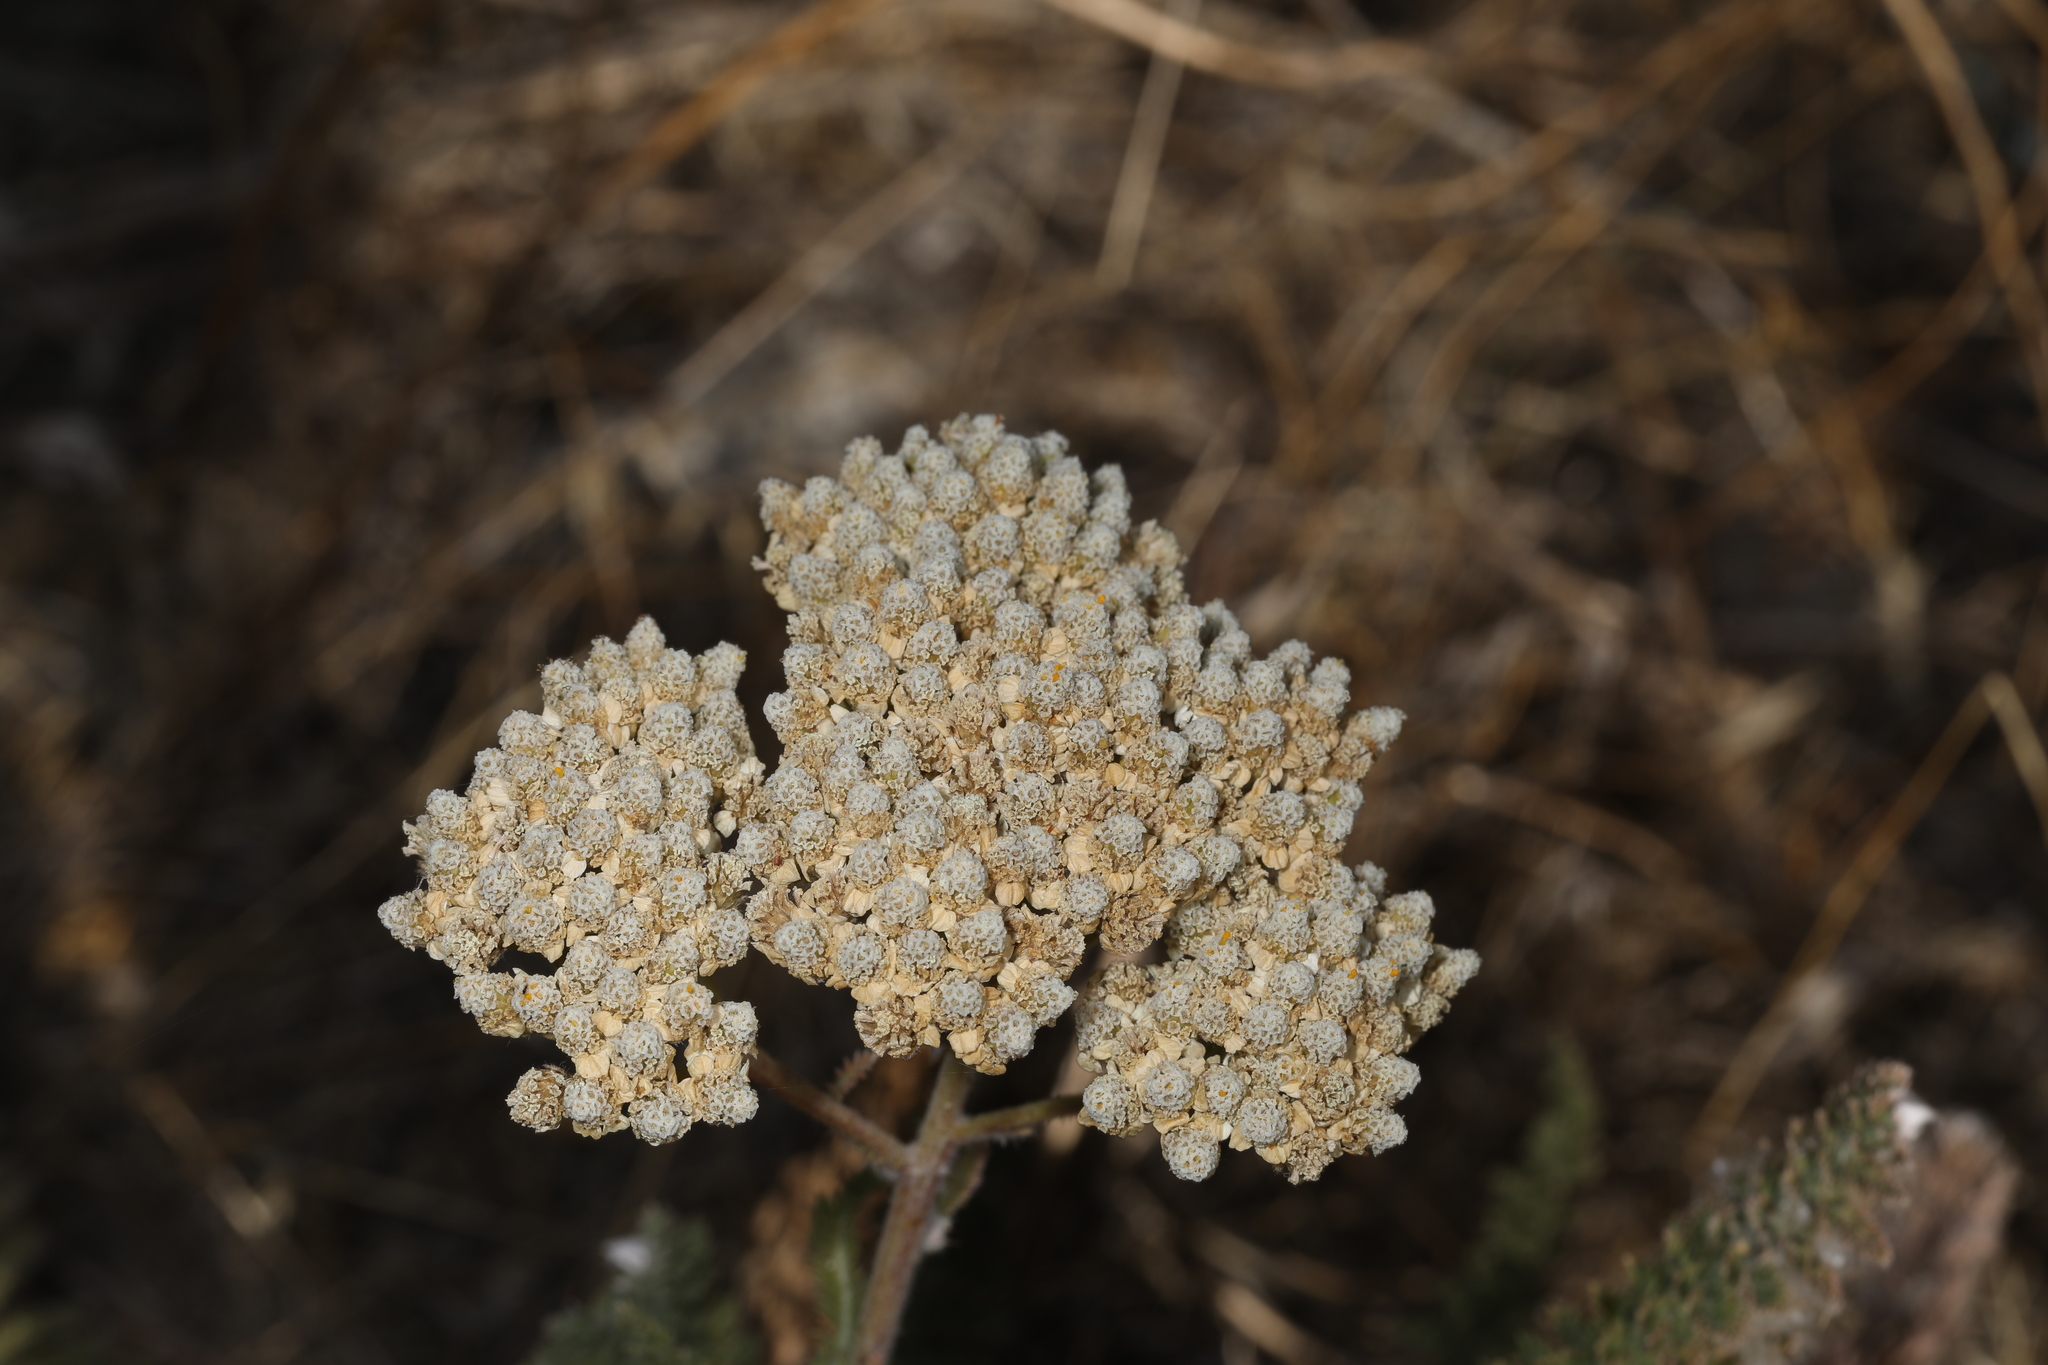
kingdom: Plantae
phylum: Tracheophyta
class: Magnoliopsida
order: Asterales
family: Asteraceae
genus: Achillea
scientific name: Achillea millefolium
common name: Yarrow
